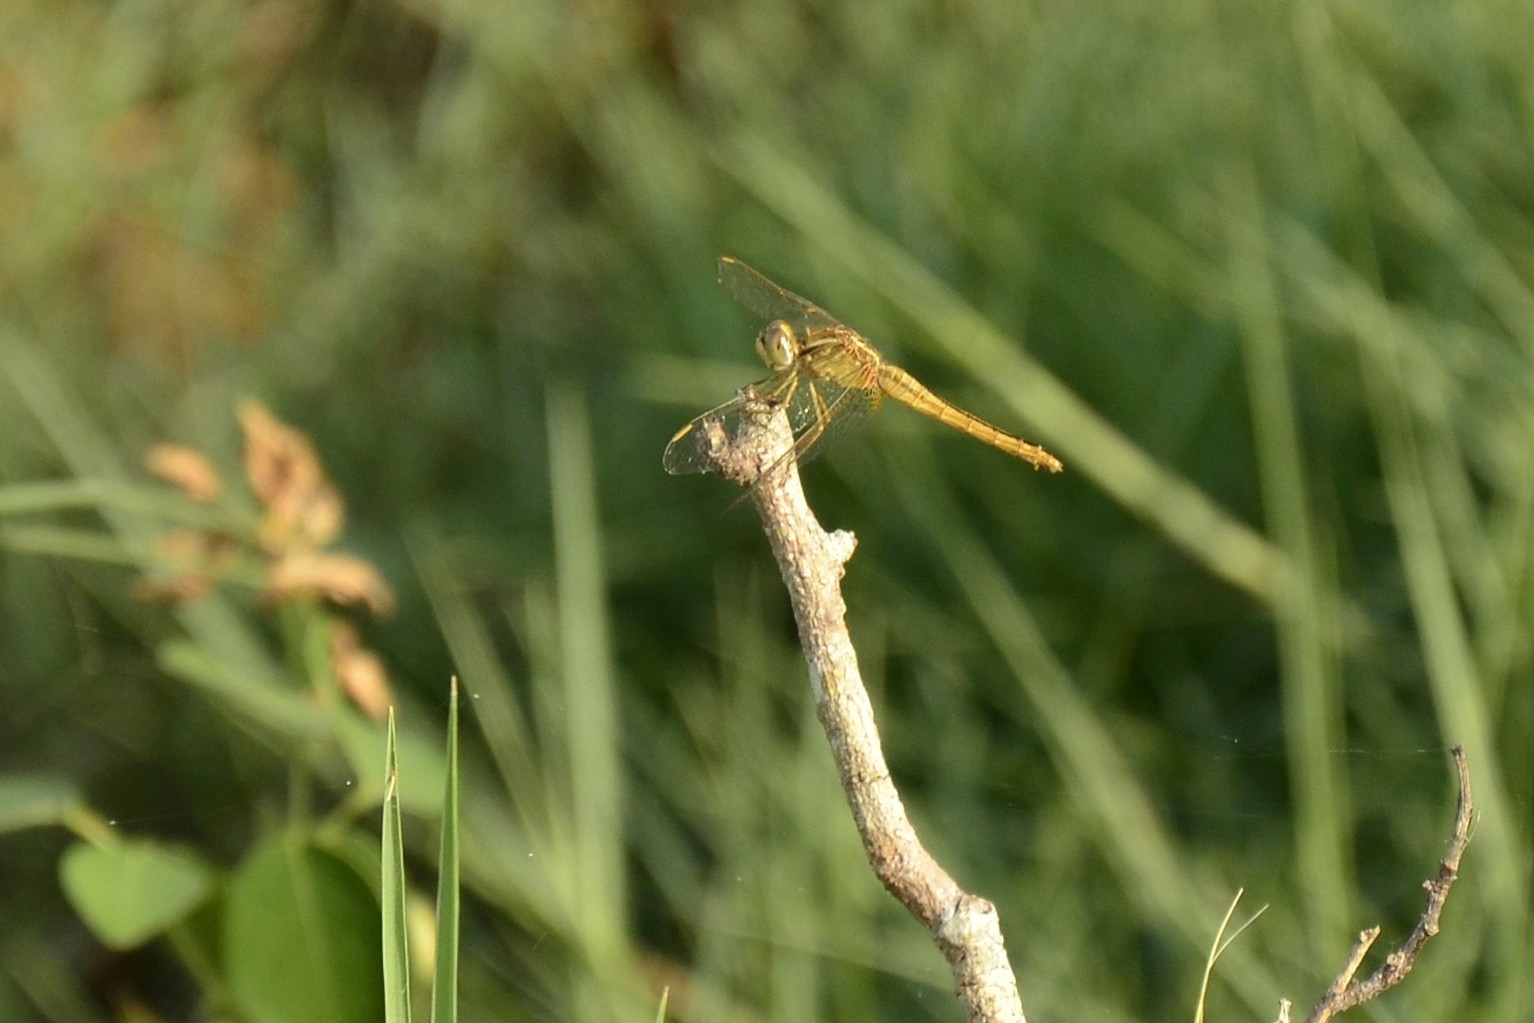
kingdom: Animalia
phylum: Arthropoda
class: Insecta
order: Odonata
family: Libellulidae
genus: Crocothemis
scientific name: Crocothemis servilia
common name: Scarlet skimmer
